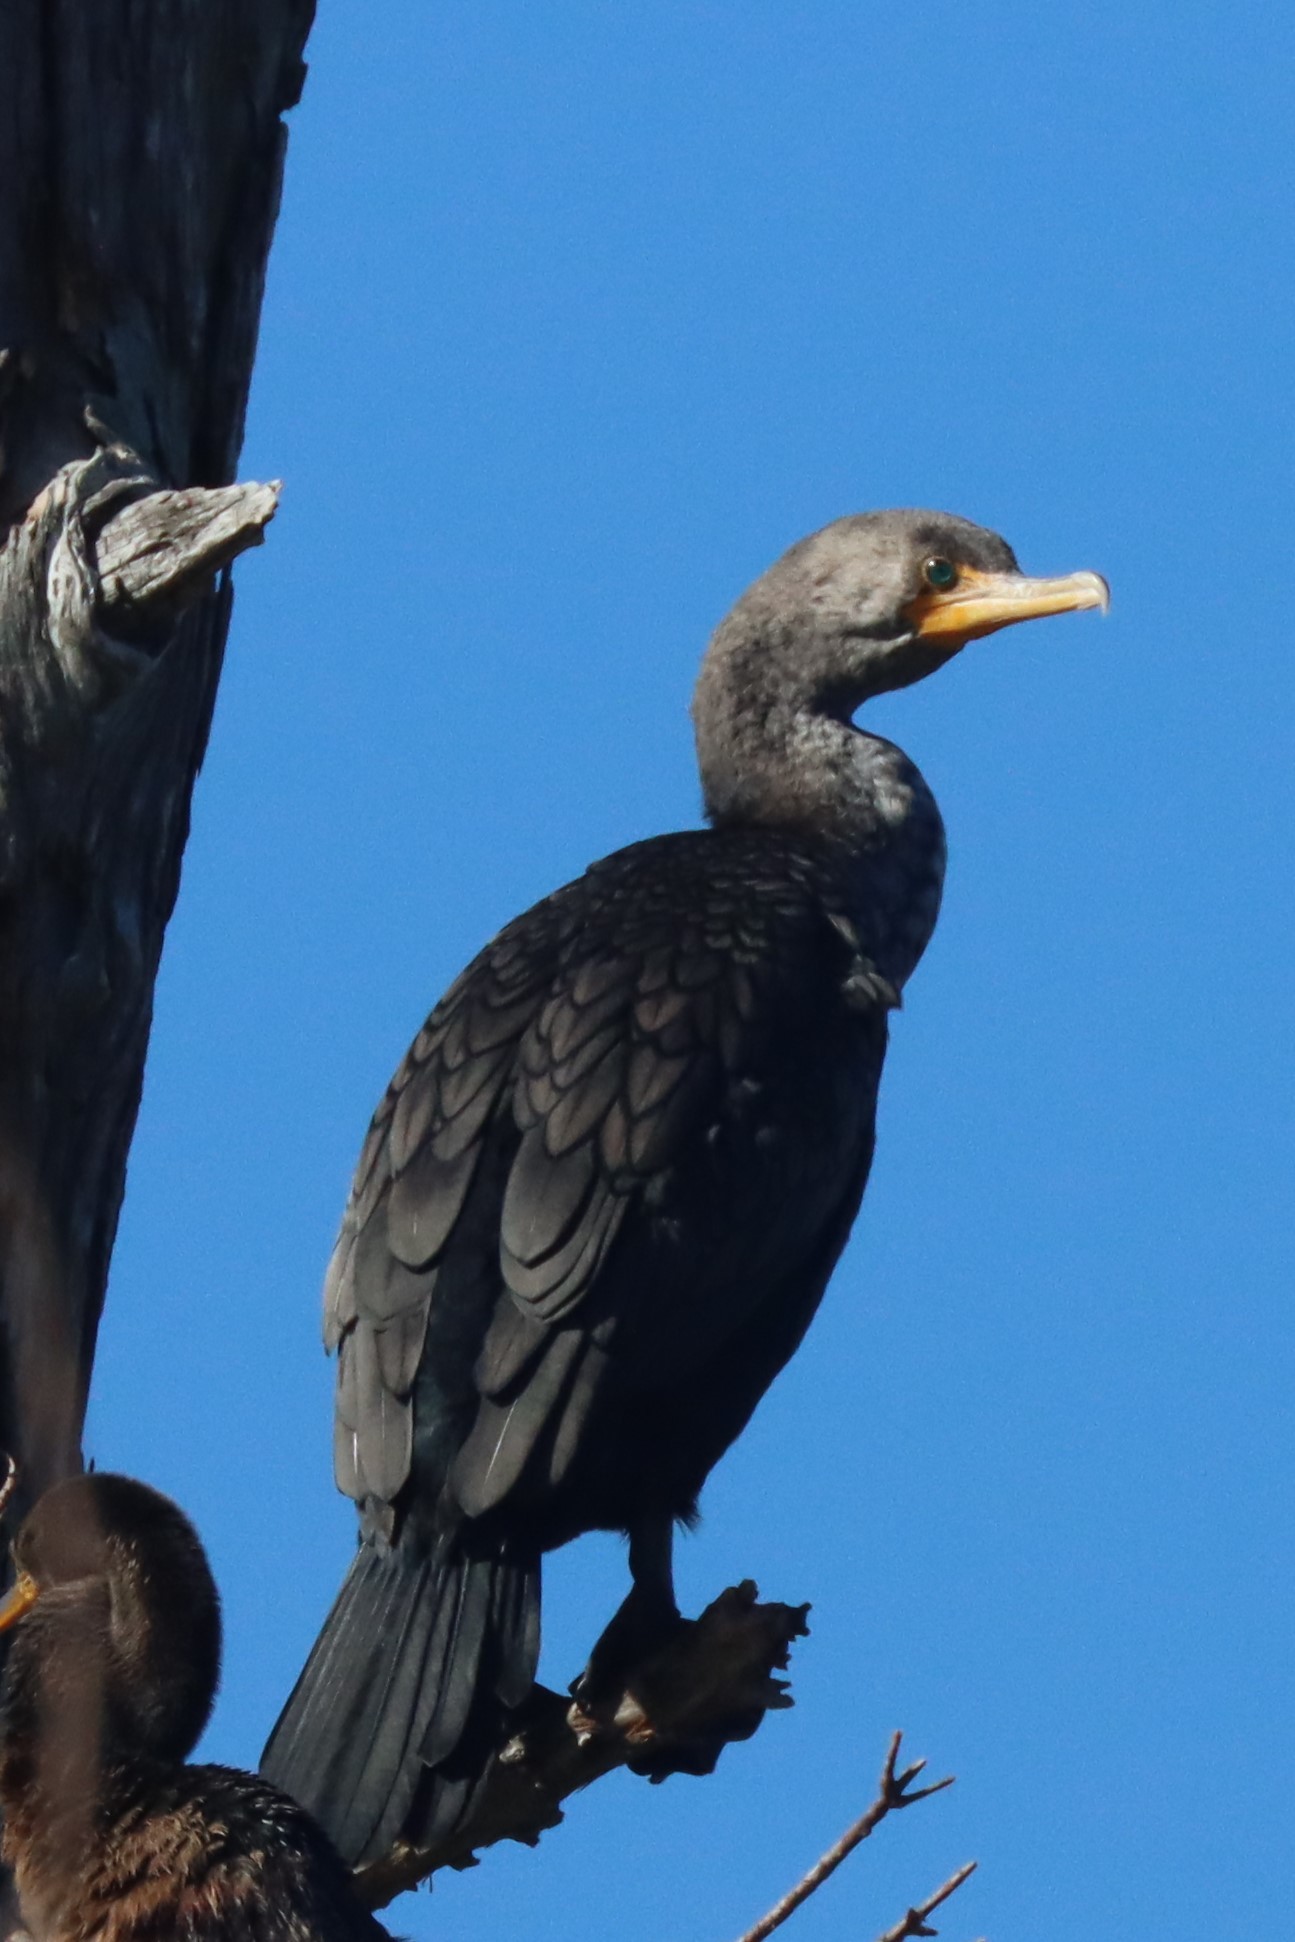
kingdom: Animalia
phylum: Chordata
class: Aves
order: Suliformes
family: Phalacrocoracidae
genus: Phalacrocorax
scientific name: Phalacrocorax auritus
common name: Double-crested cormorant
